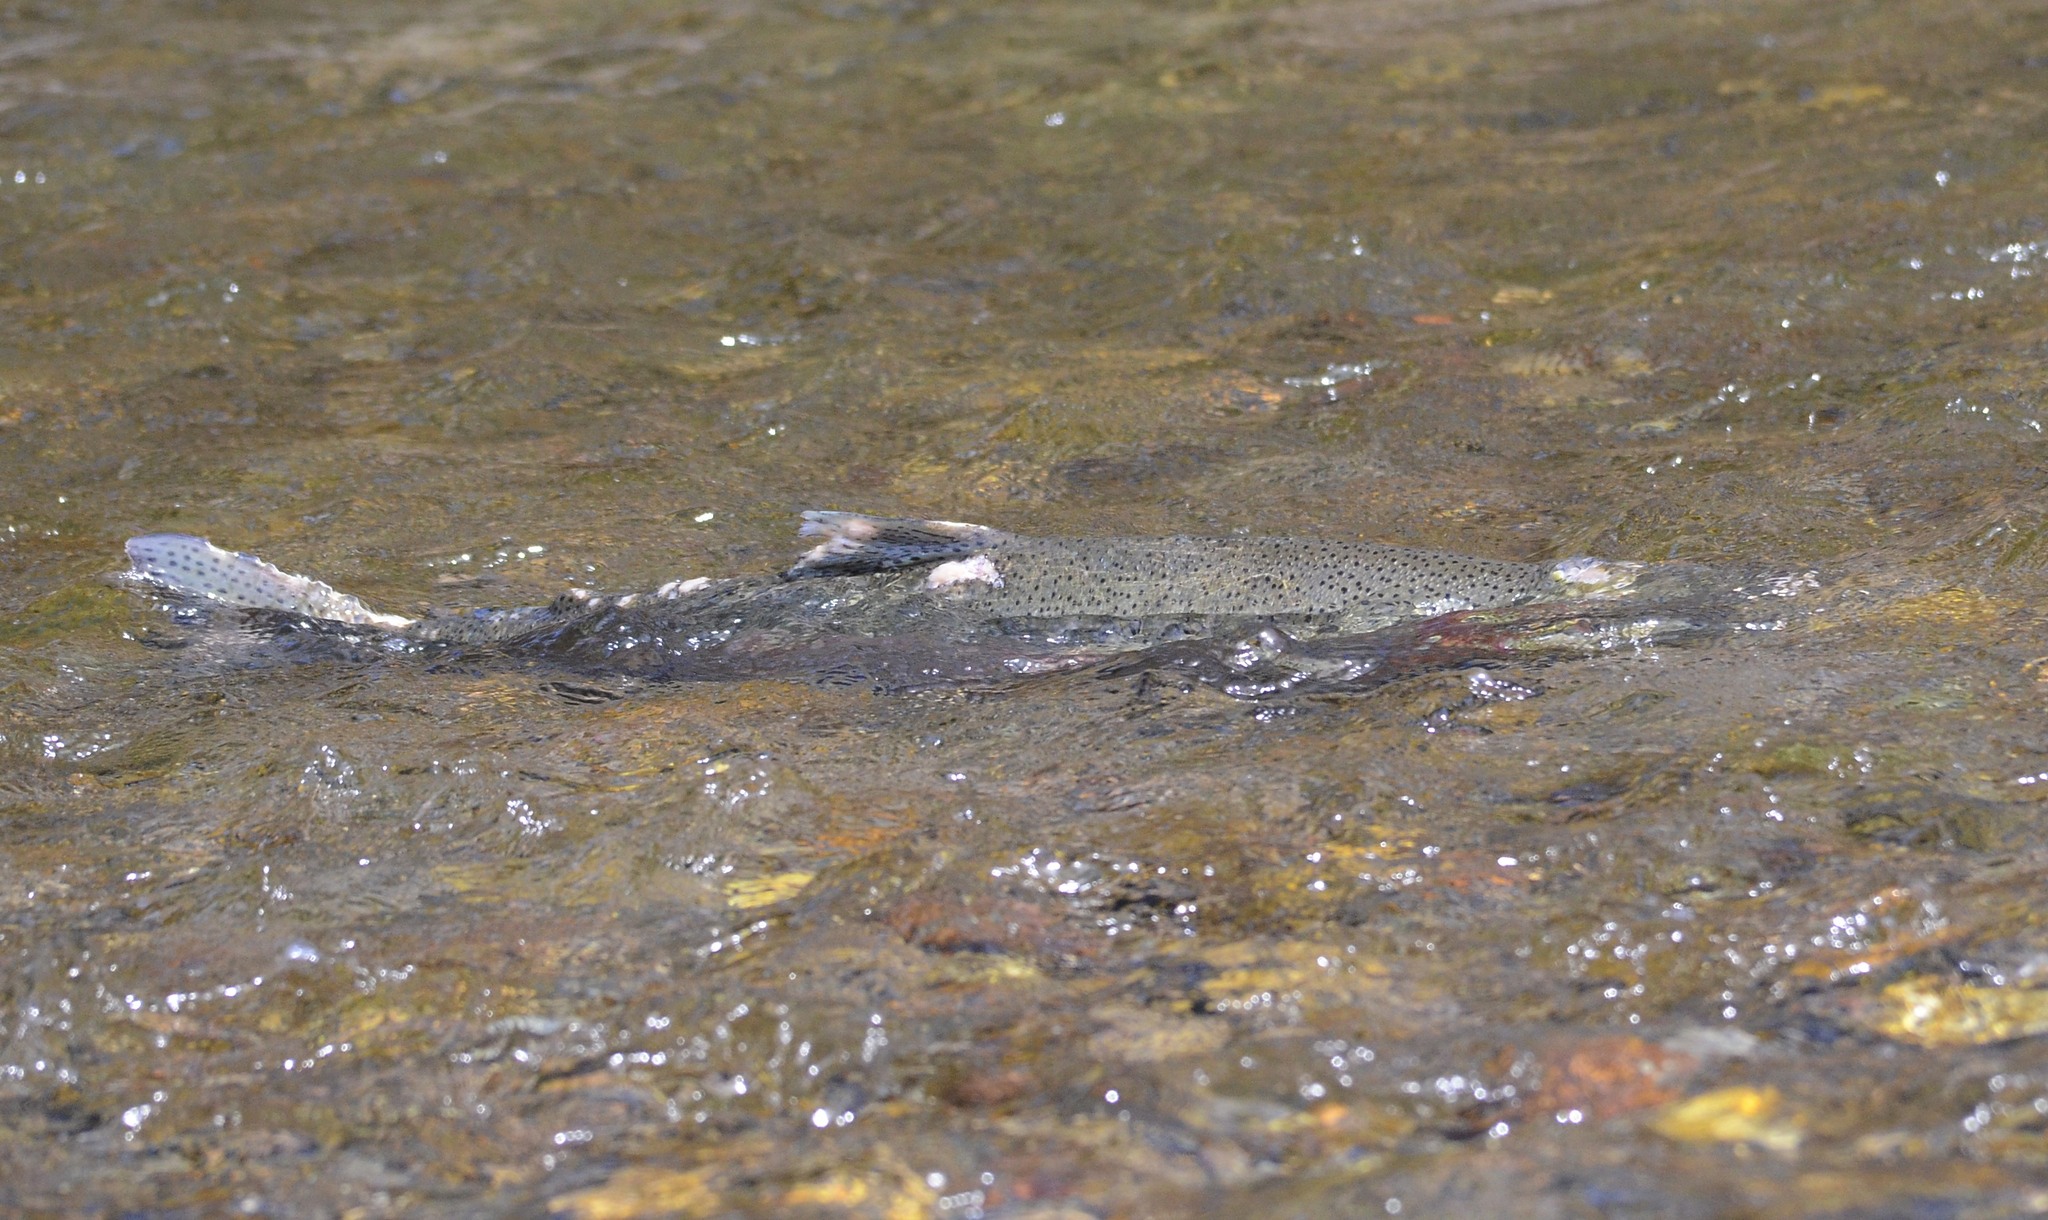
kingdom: Animalia
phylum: Chordata
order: Salmoniformes
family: Salmonidae
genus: Oncorhynchus
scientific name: Oncorhynchus mykiss
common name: Rainbow trout
